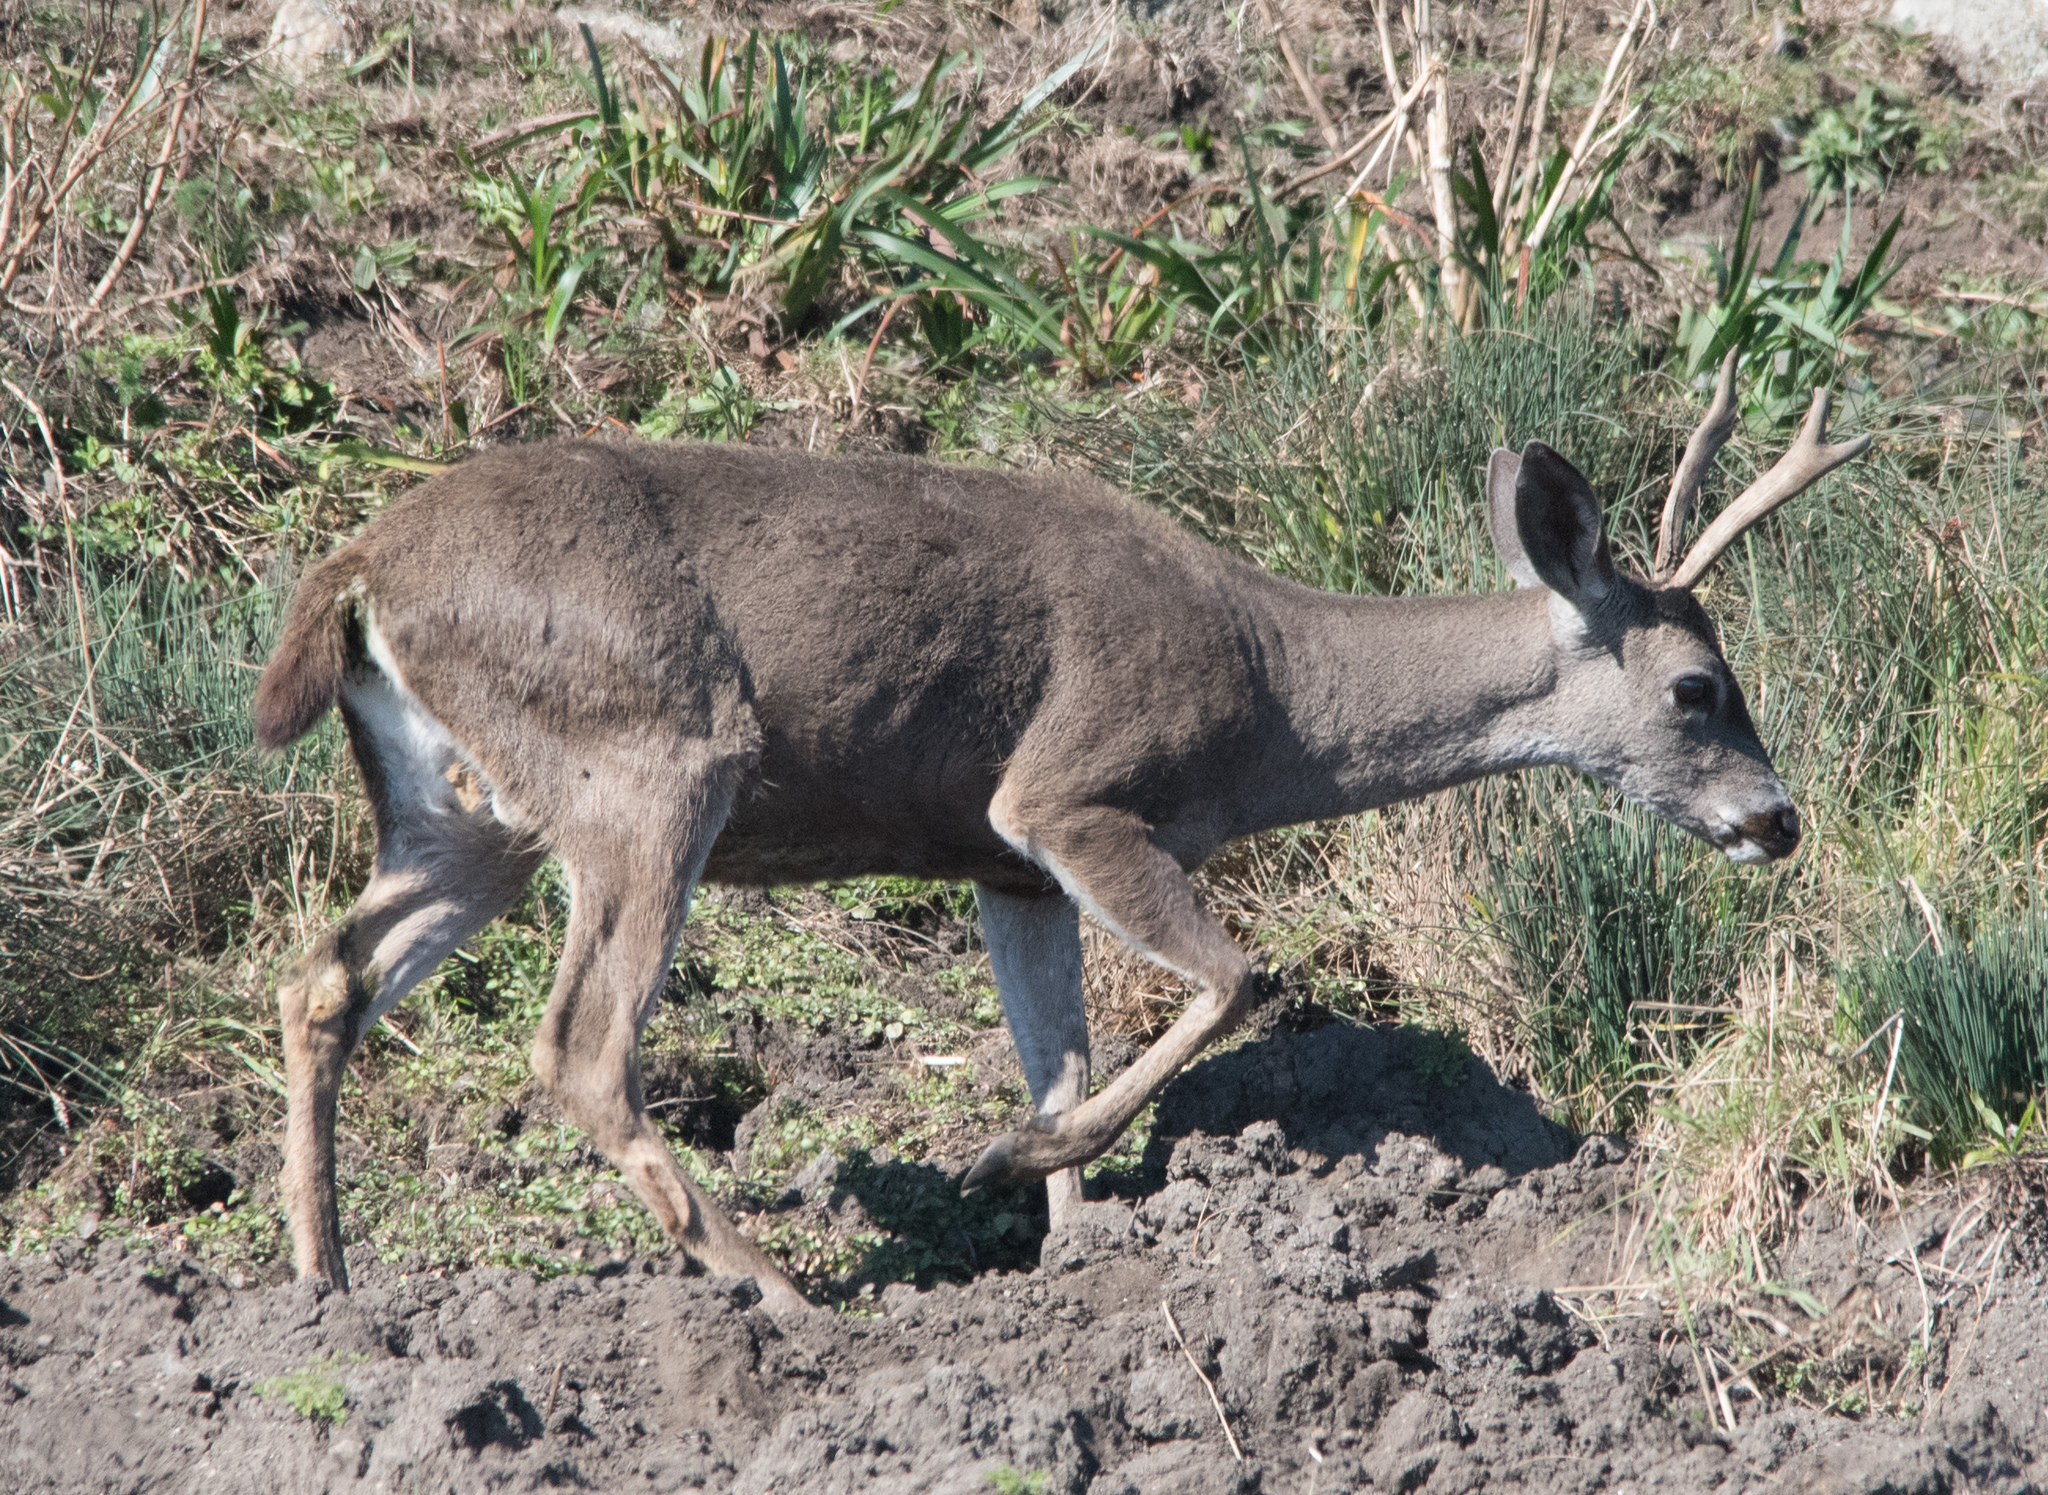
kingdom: Animalia
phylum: Chordata
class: Mammalia
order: Artiodactyla
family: Cervidae
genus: Odocoileus
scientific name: Odocoileus hemionus
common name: Mule deer
